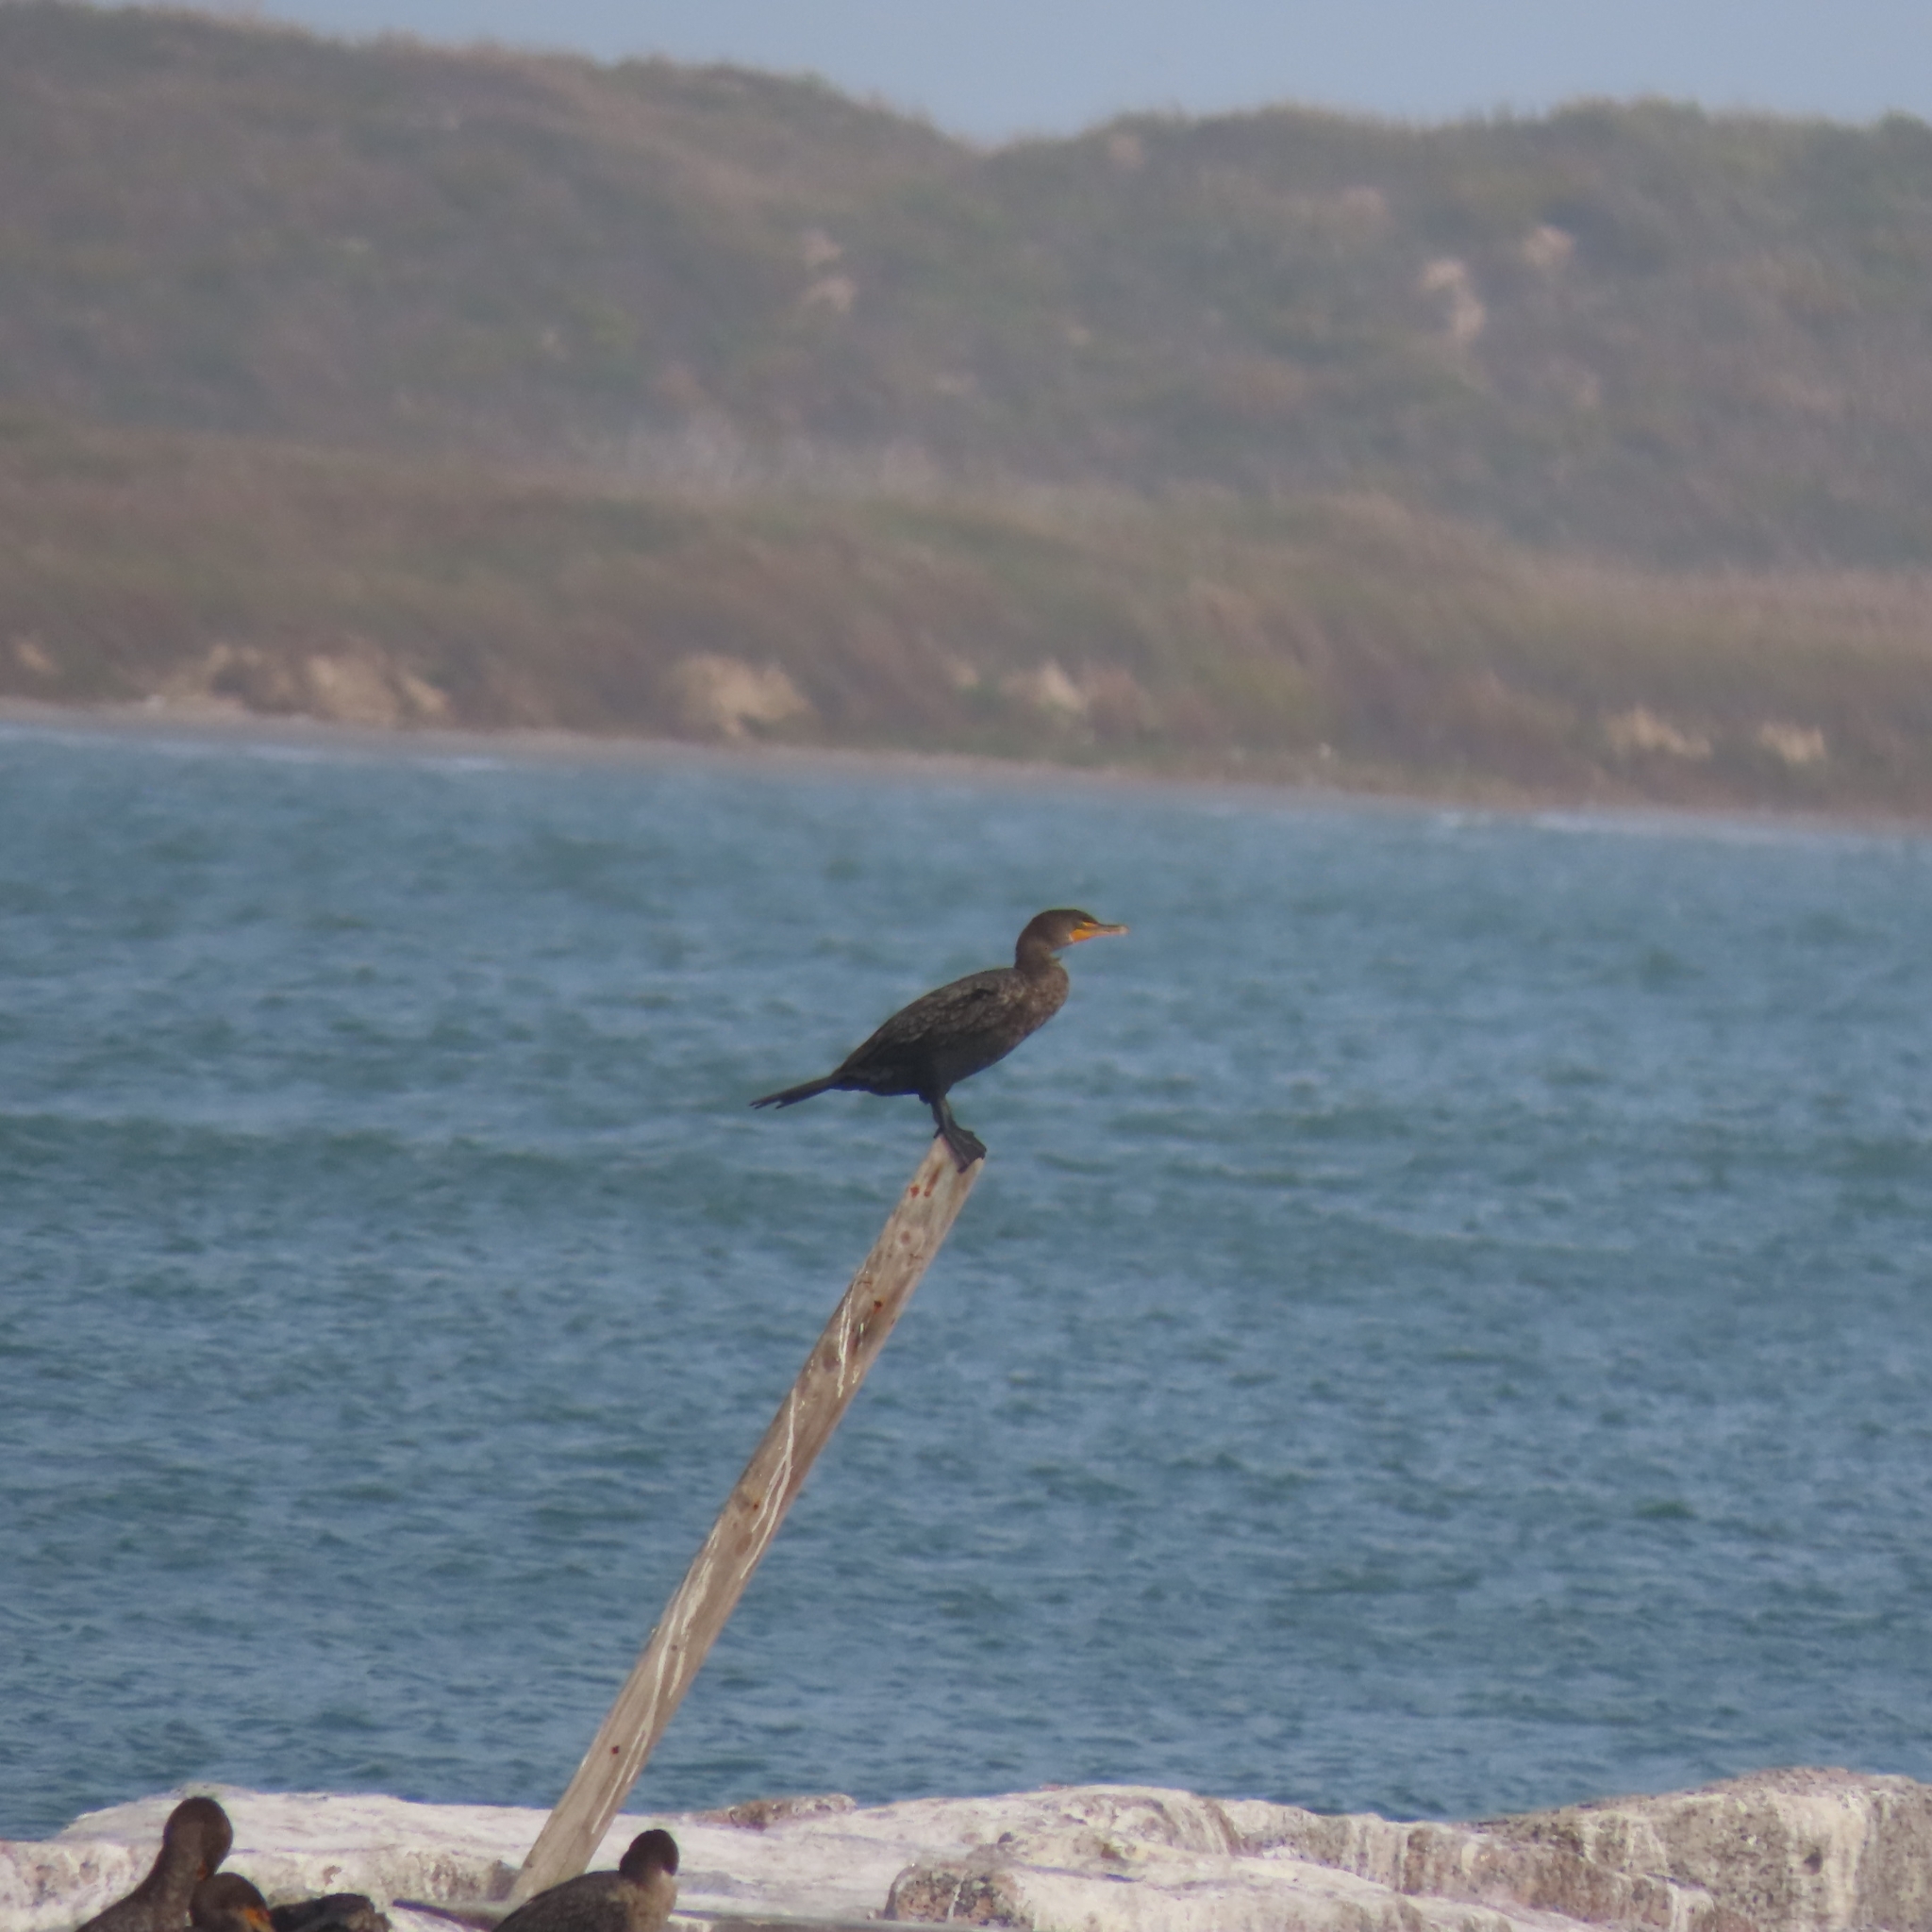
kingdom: Animalia
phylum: Chordata
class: Aves
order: Suliformes
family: Phalacrocoracidae
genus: Phalacrocorax
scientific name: Phalacrocorax auritus
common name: Double-crested cormorant
